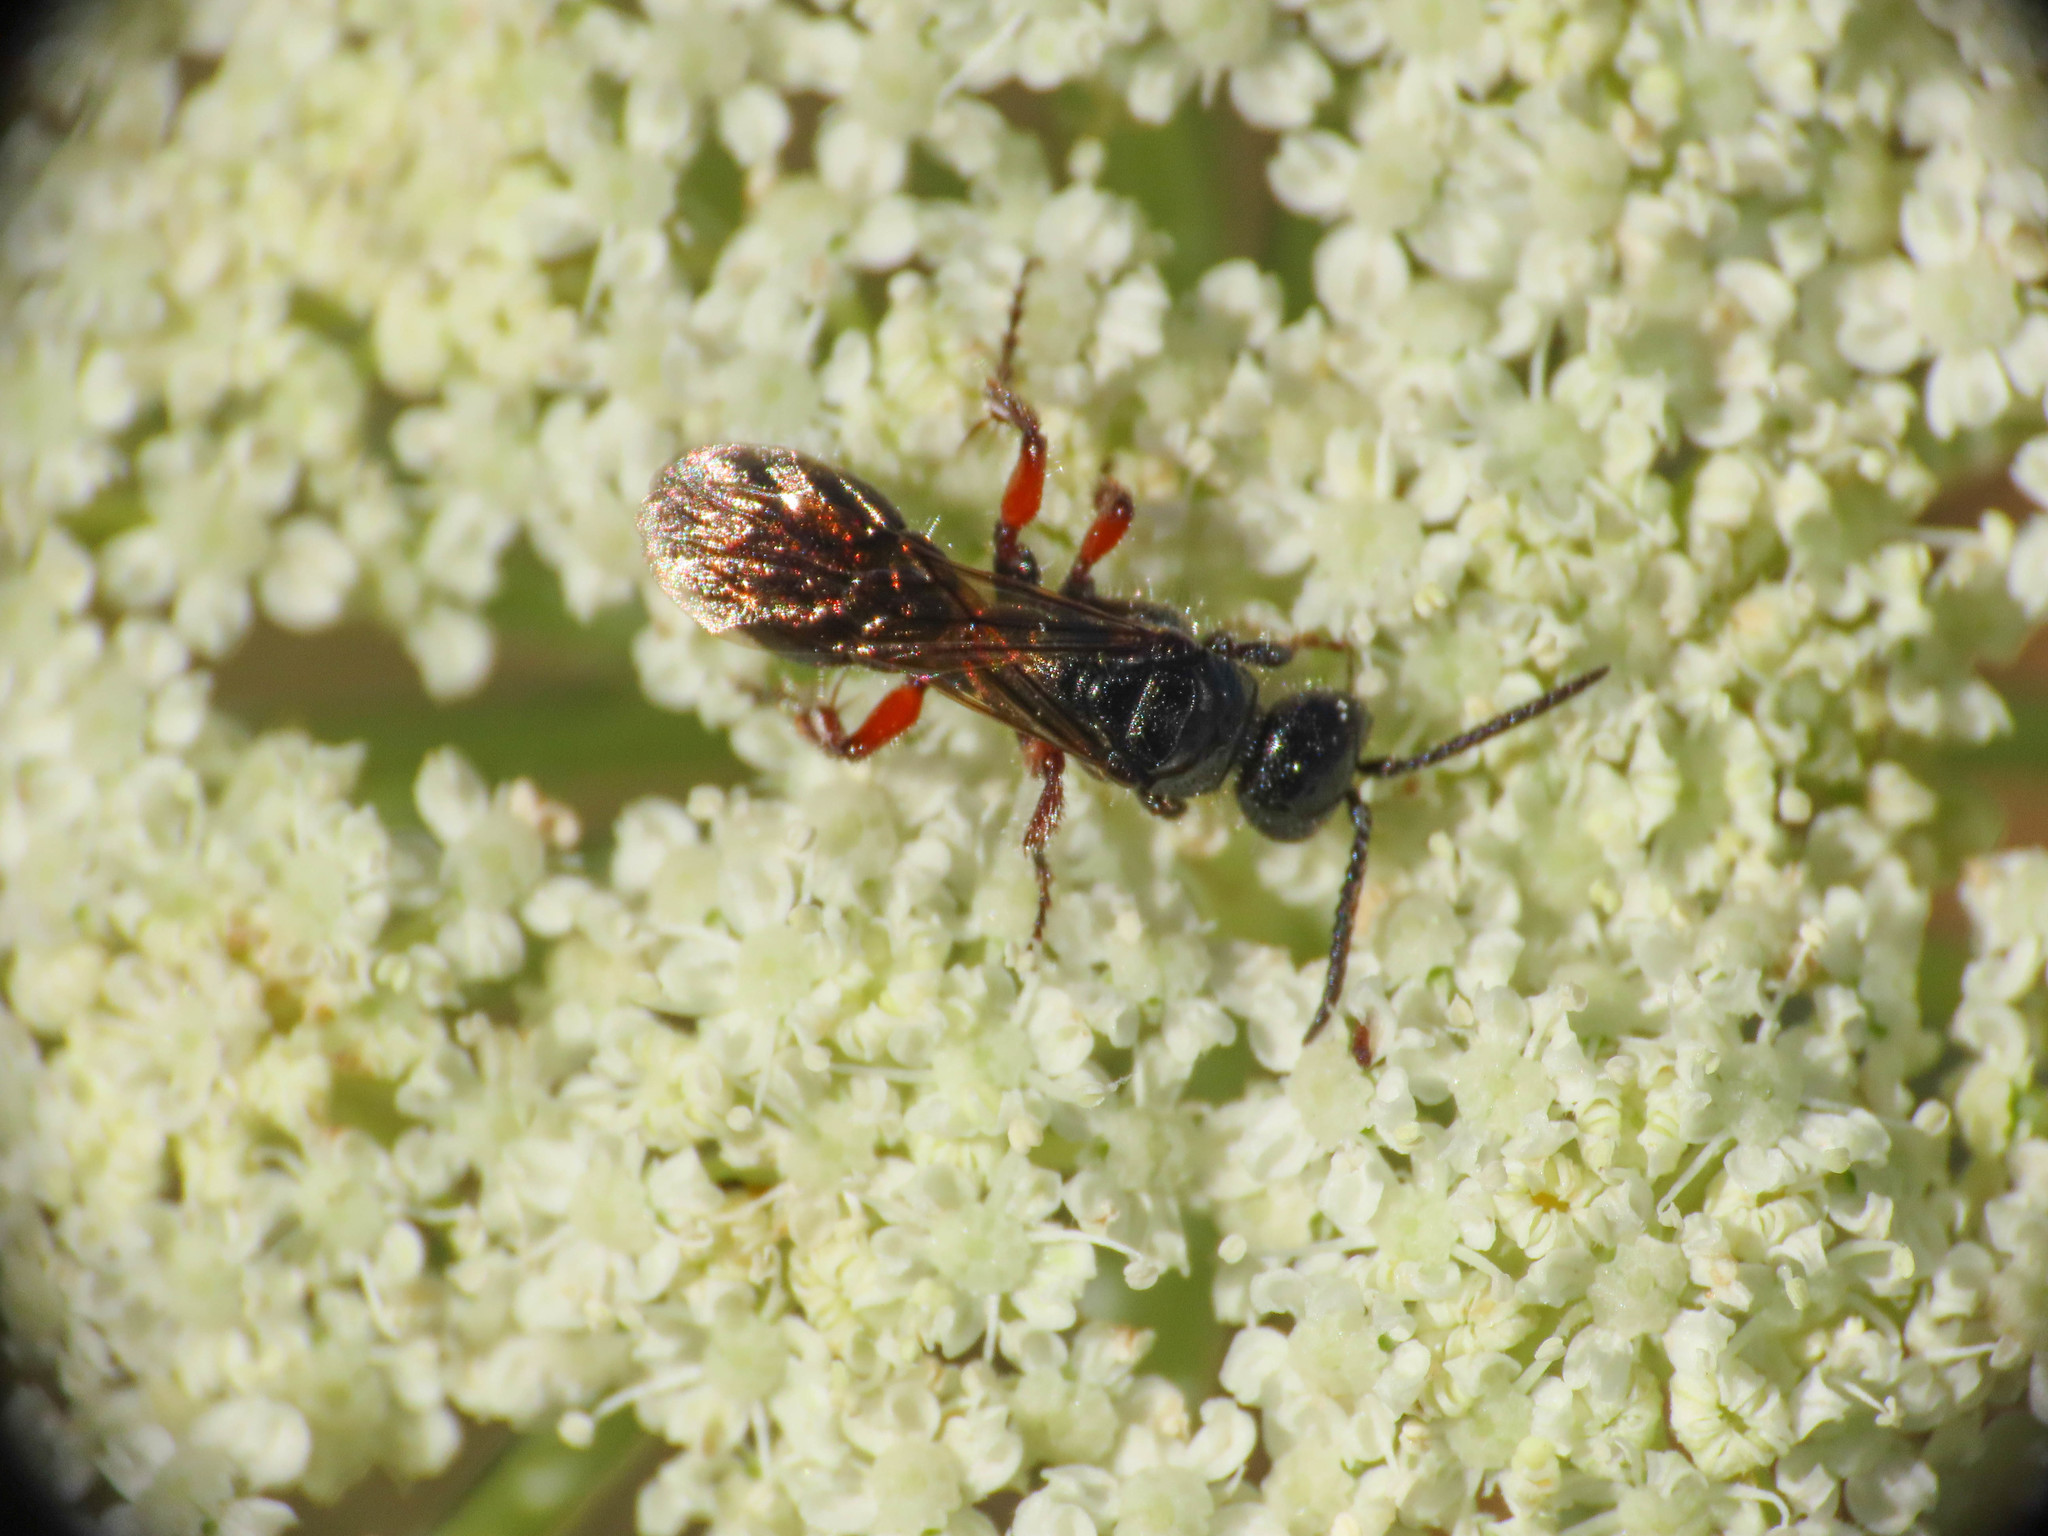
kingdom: Animalia
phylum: Arthropoda
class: Insecta
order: Hymenoptera
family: Tiphiidae
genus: Tiphia
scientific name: Tiphia femorata
